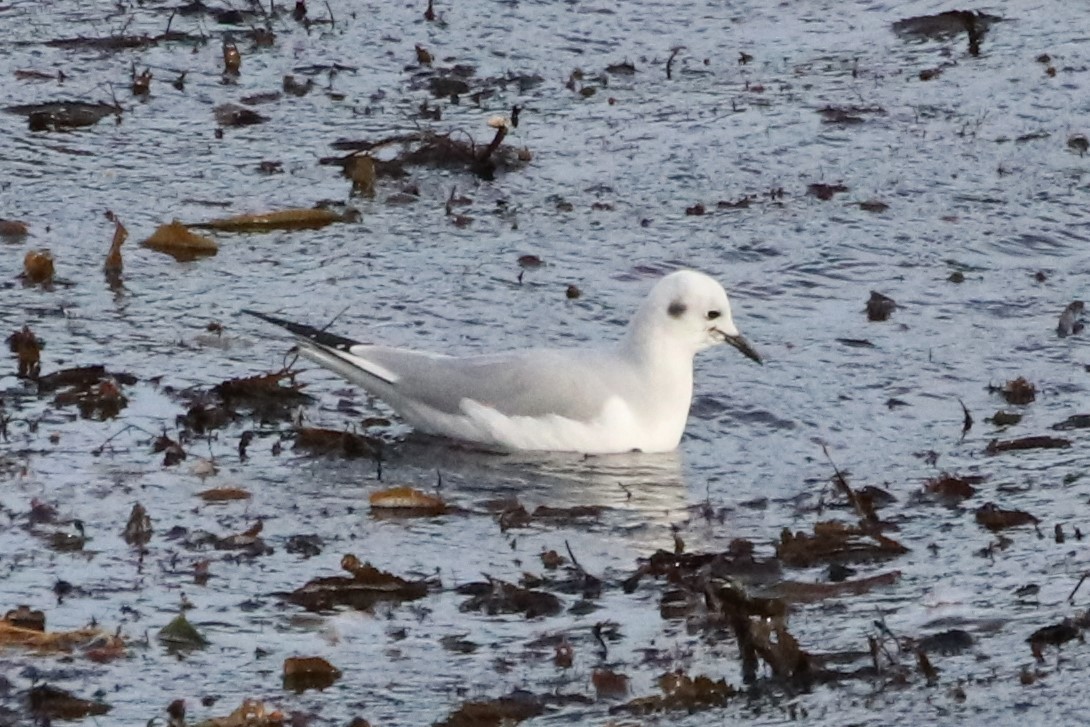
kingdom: Animalia
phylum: Chordata
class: Aves
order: Charadriiformes
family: Laridae
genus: Chroicocephalus
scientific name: Chroicocephalus philadelphia
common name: Bonaparte's gull
